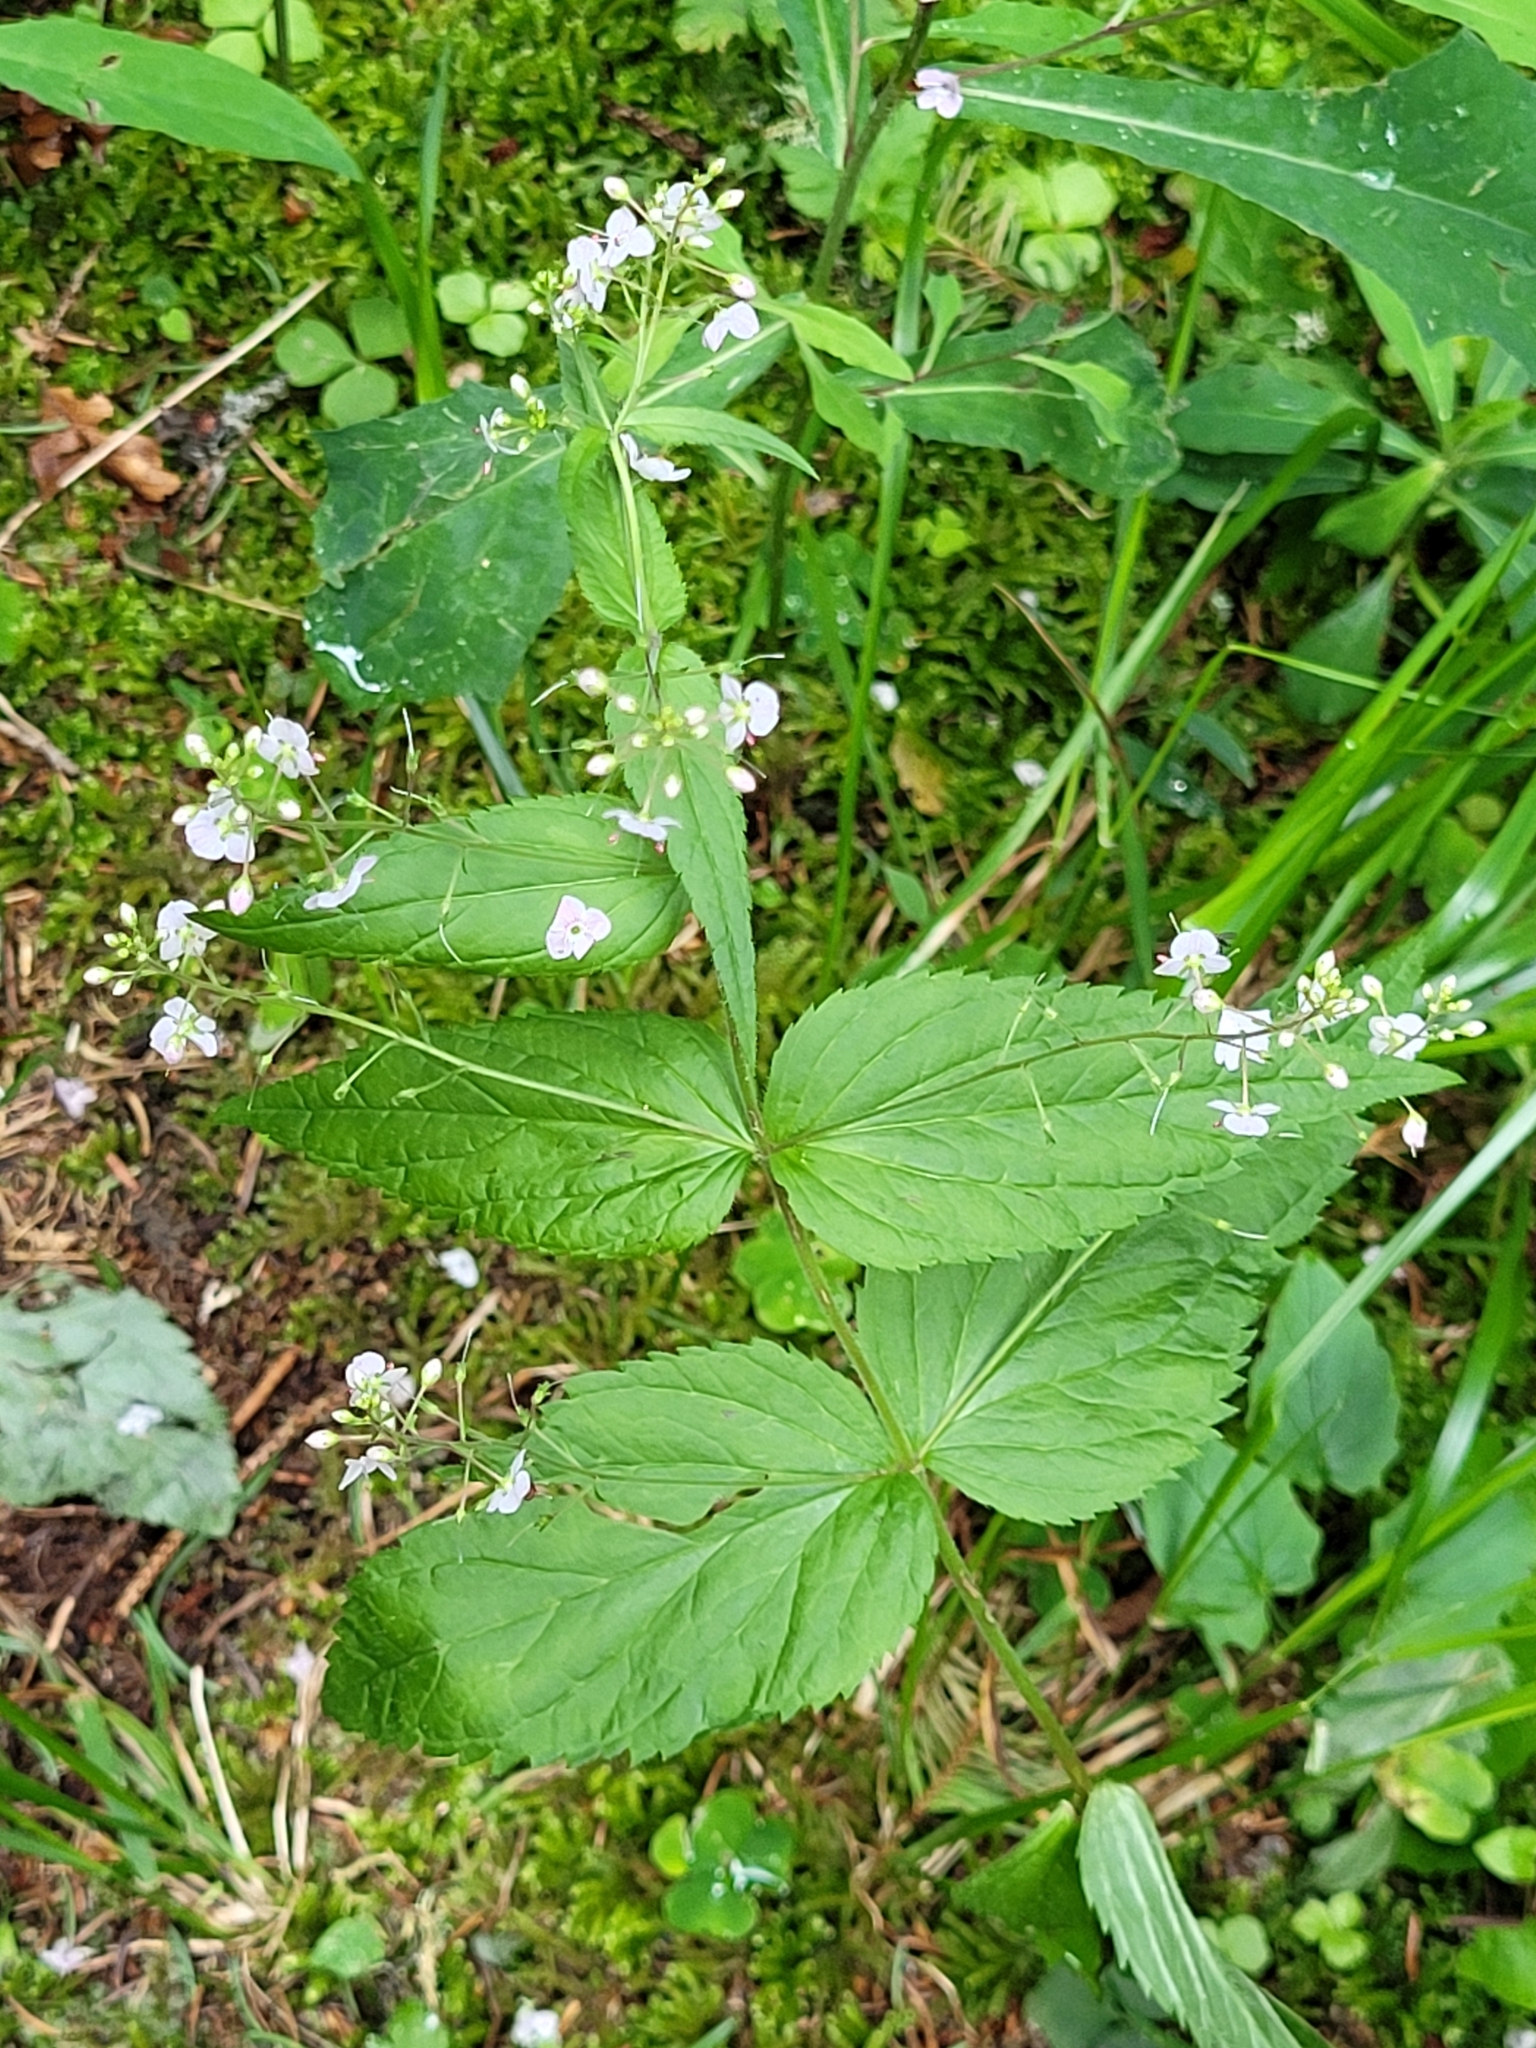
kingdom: Plantae
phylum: Tracheophyta
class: Magnoliopsida
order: Lamiales
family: Plantaginaceae
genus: Veronica
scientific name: Veronica urticifolia
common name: Nettle-leaf speedwell
